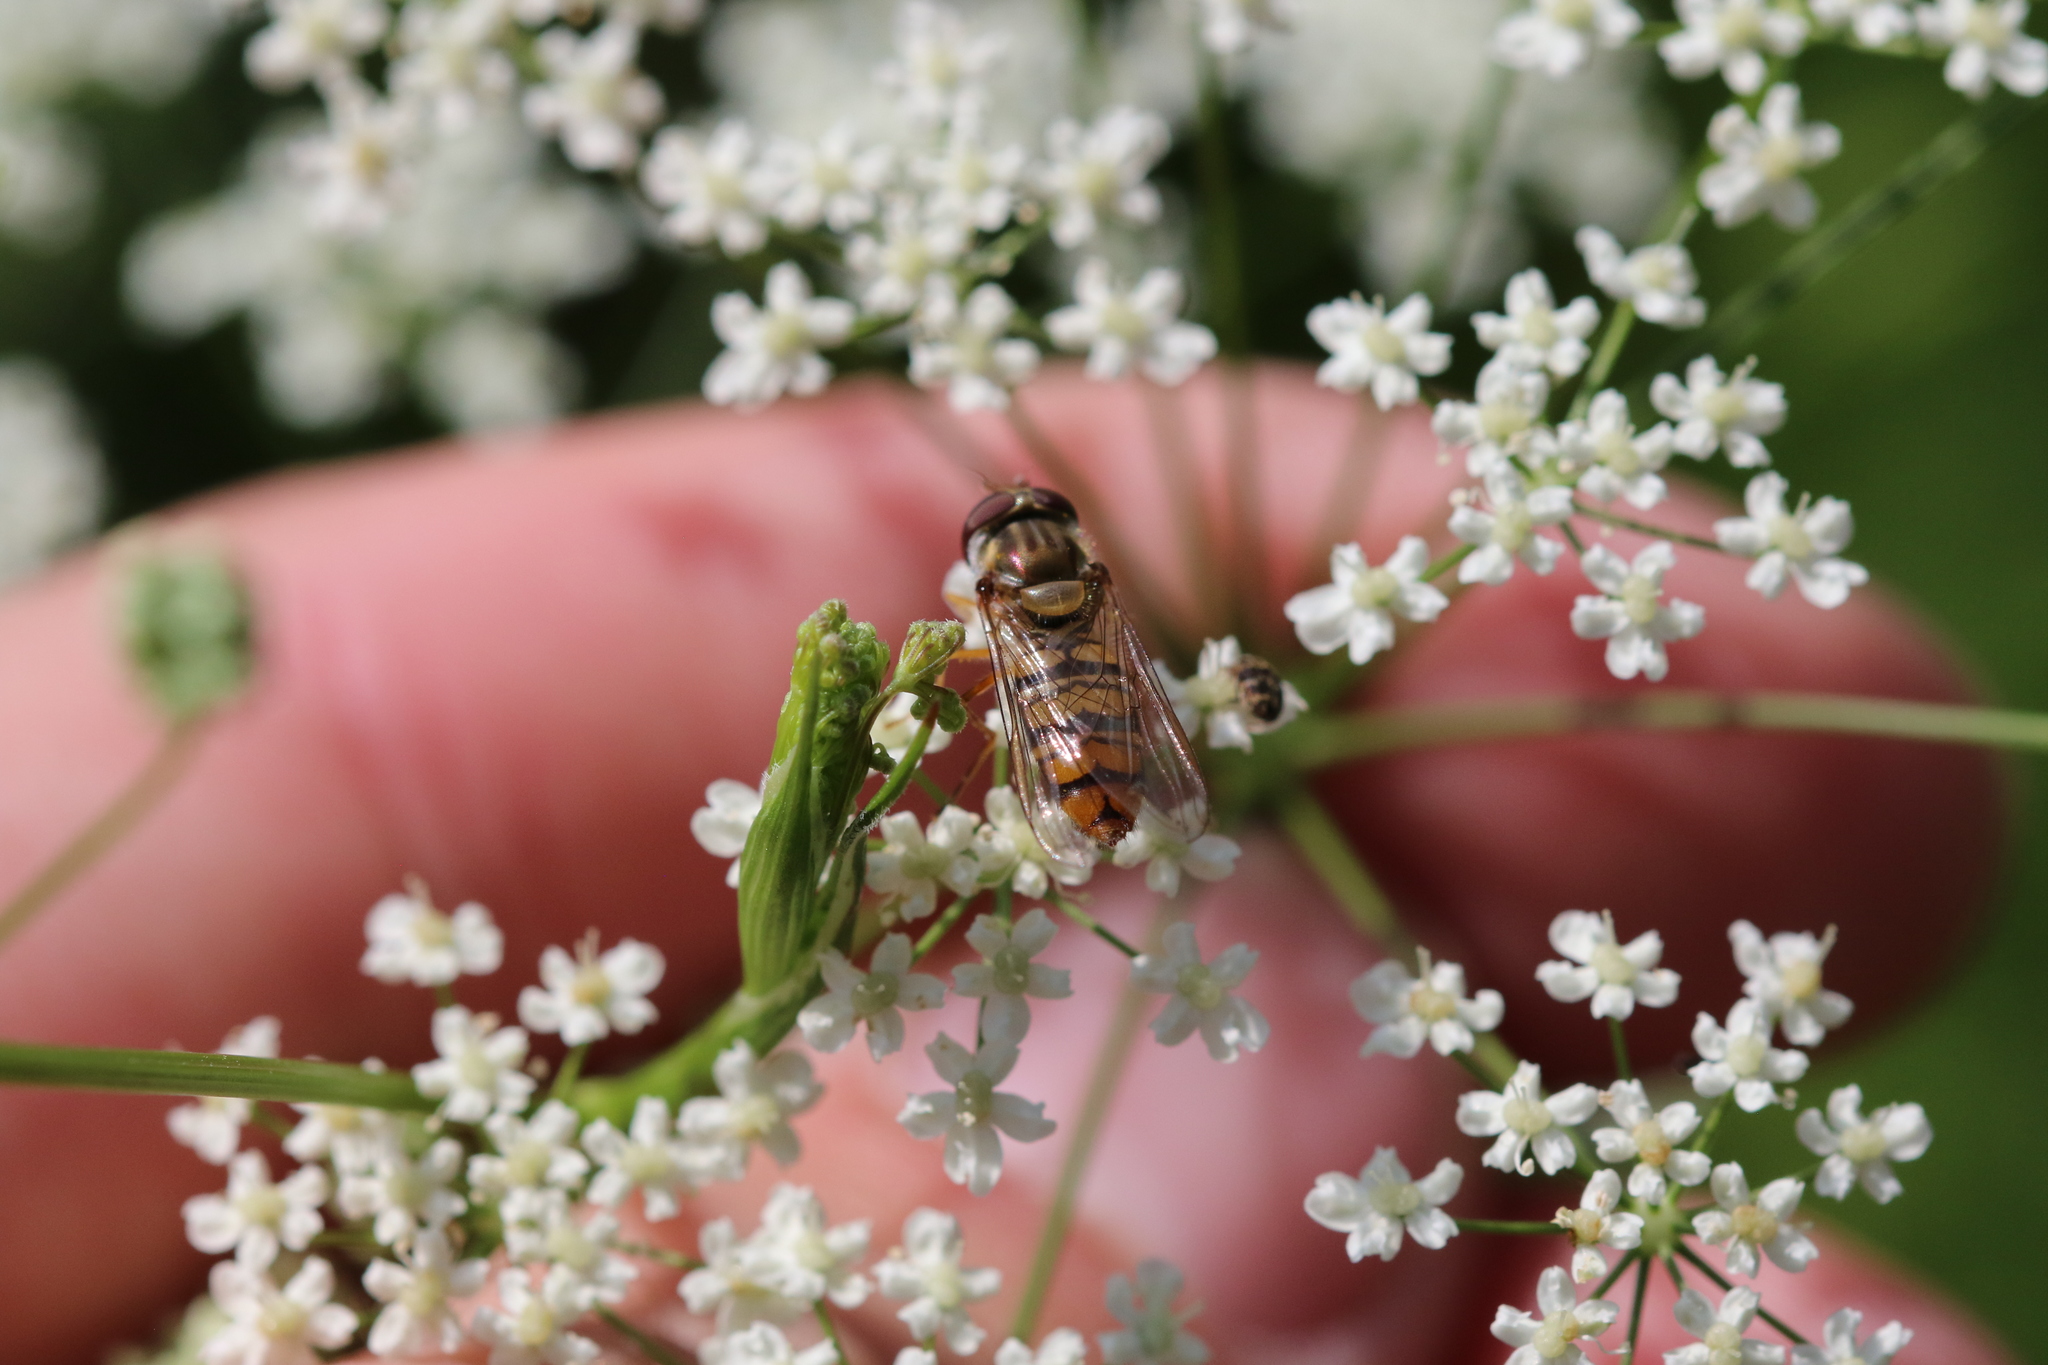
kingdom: Animalia
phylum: Arthropoda
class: Insecta
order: Diptera
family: Syrphidae
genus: Episyrphus
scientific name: Episyrphus balteatus
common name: Marmalade hoverfly
